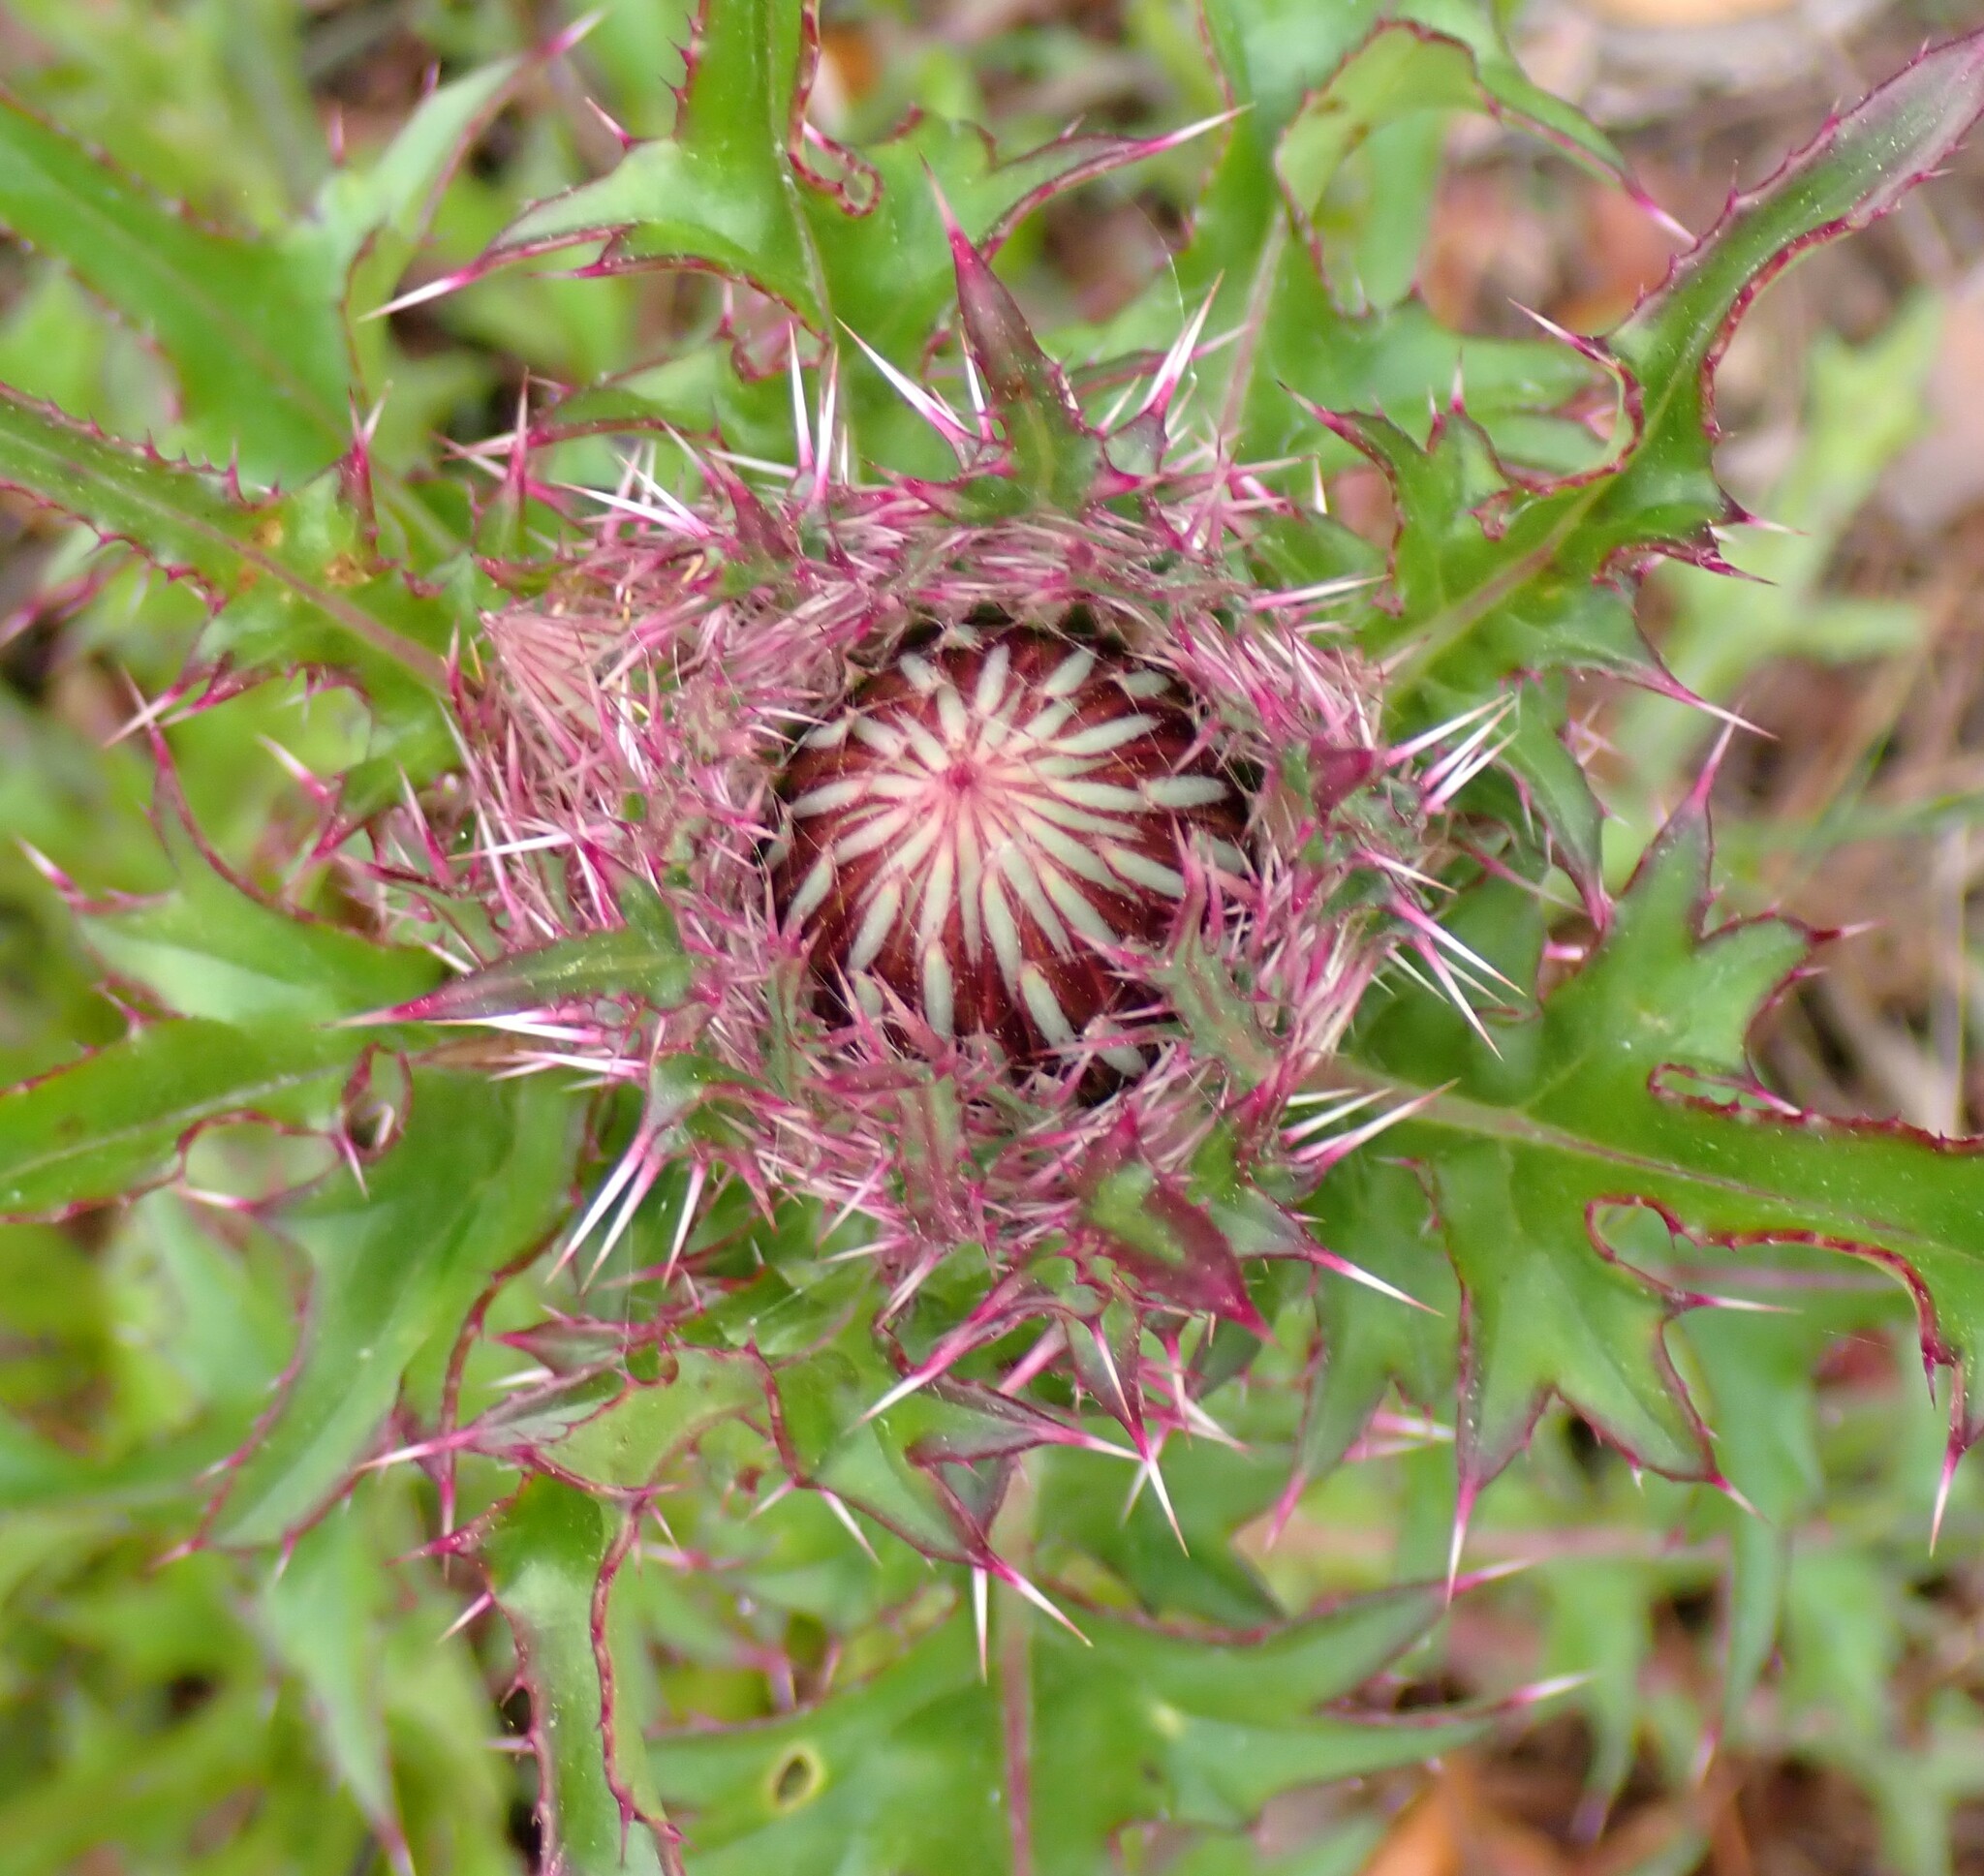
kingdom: Plantae
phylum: Tracheophyta
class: Magnoliopsida
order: Asterales
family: Asteraceae
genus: Cirsium
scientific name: Cirsium horridulum
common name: Bristly thistle
